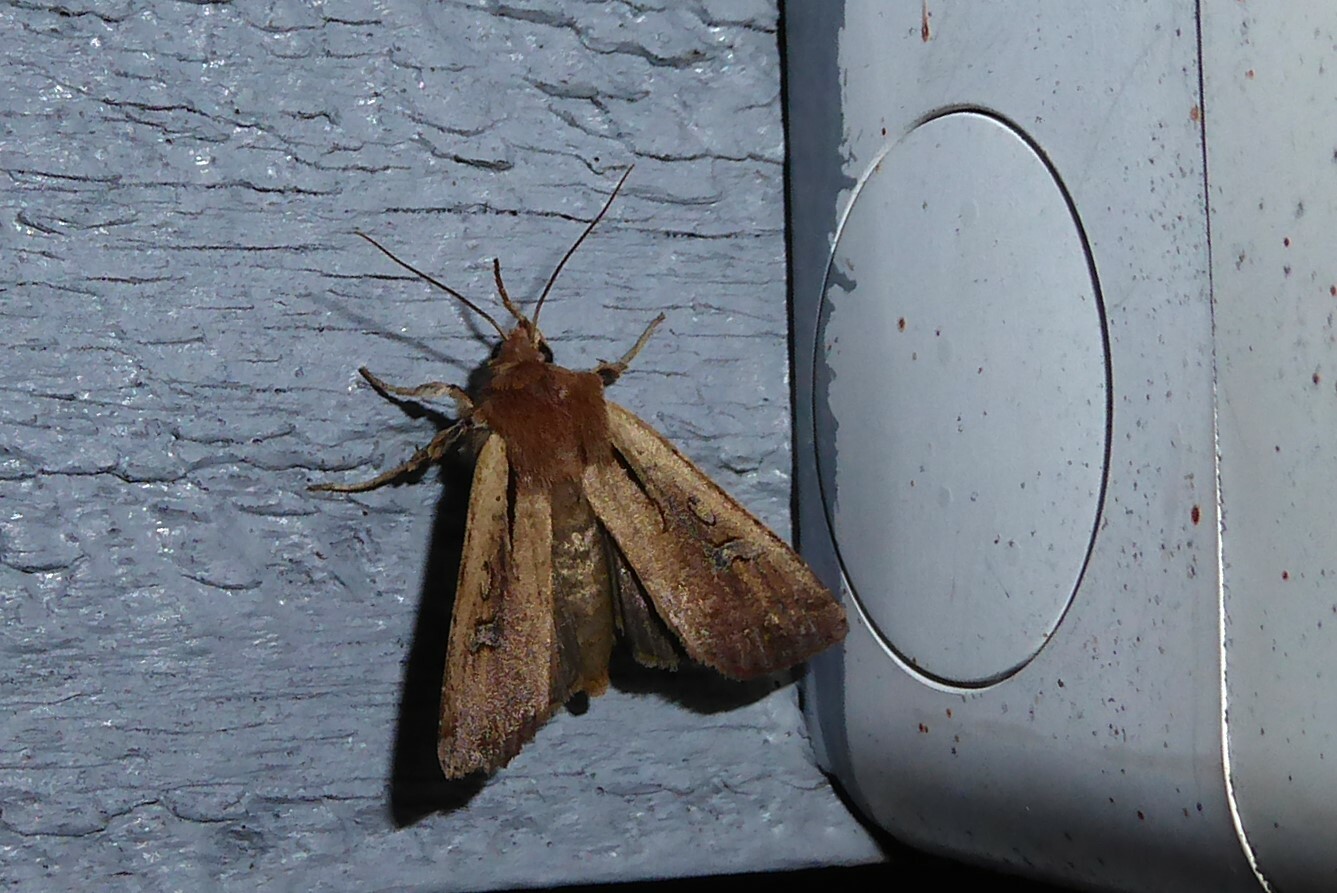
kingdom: Animalia
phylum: Arthropoda
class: Insecta
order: Lepidoptera
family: Noctuidae
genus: Ichneutica
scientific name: Ichneutica atristriga
